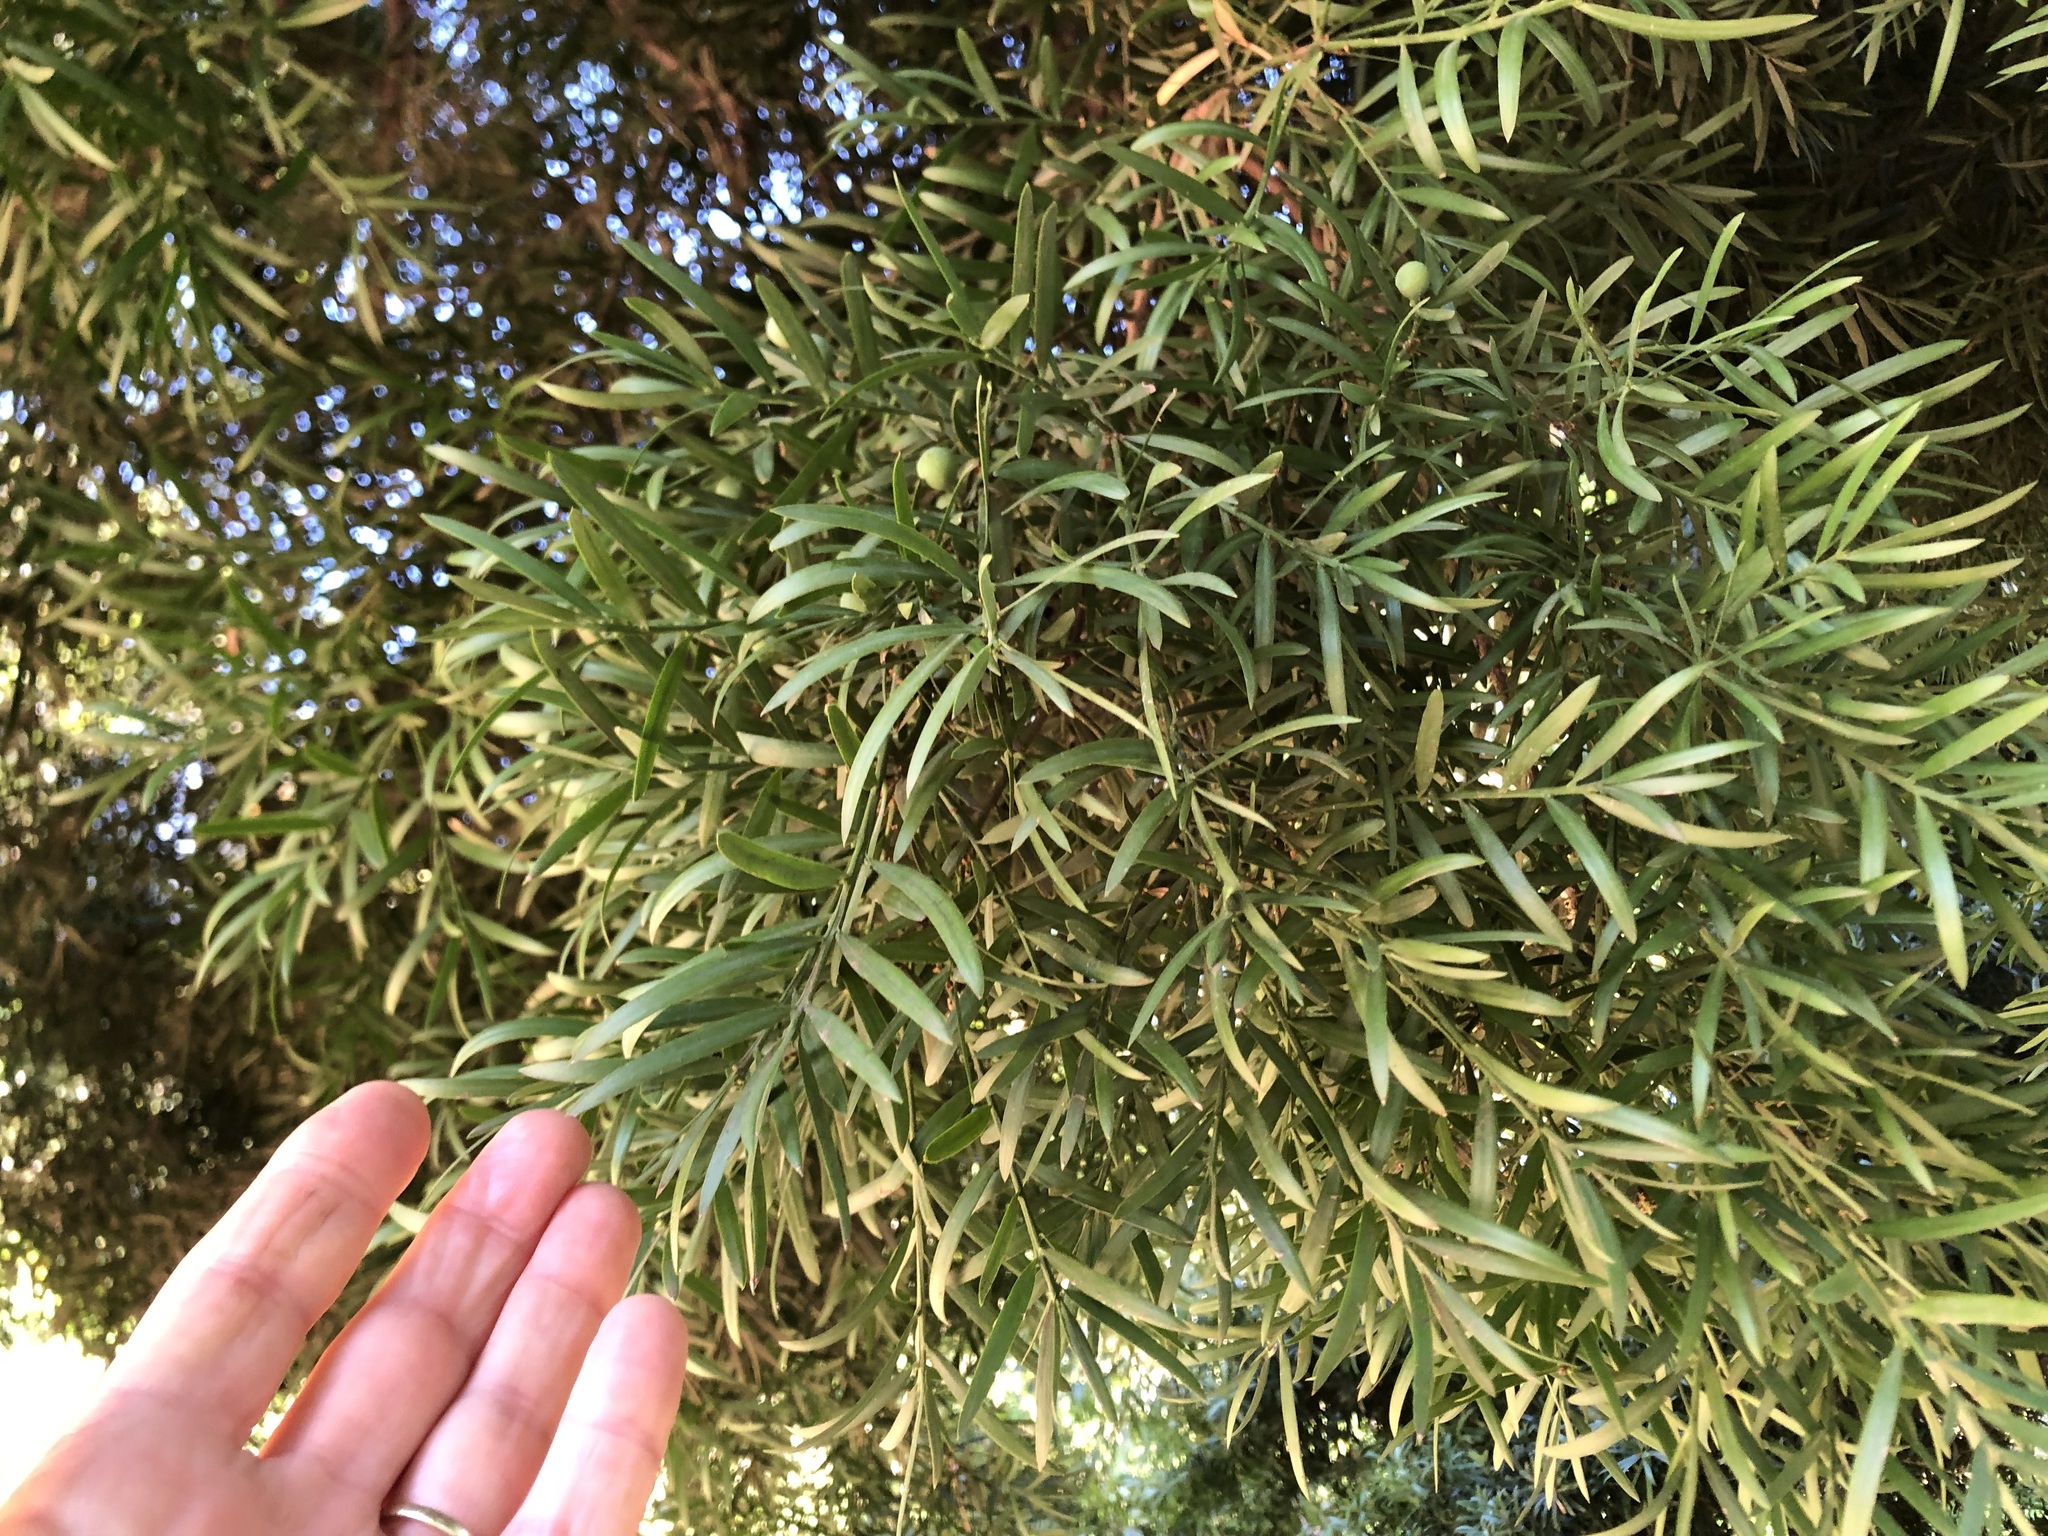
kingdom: Plantae
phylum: Tracheophyta
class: Pinopsida
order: Pinales
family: Podocarpaceae
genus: Afrocarpus
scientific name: Afrocarpus falcatus
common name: Bastard yellowwood
